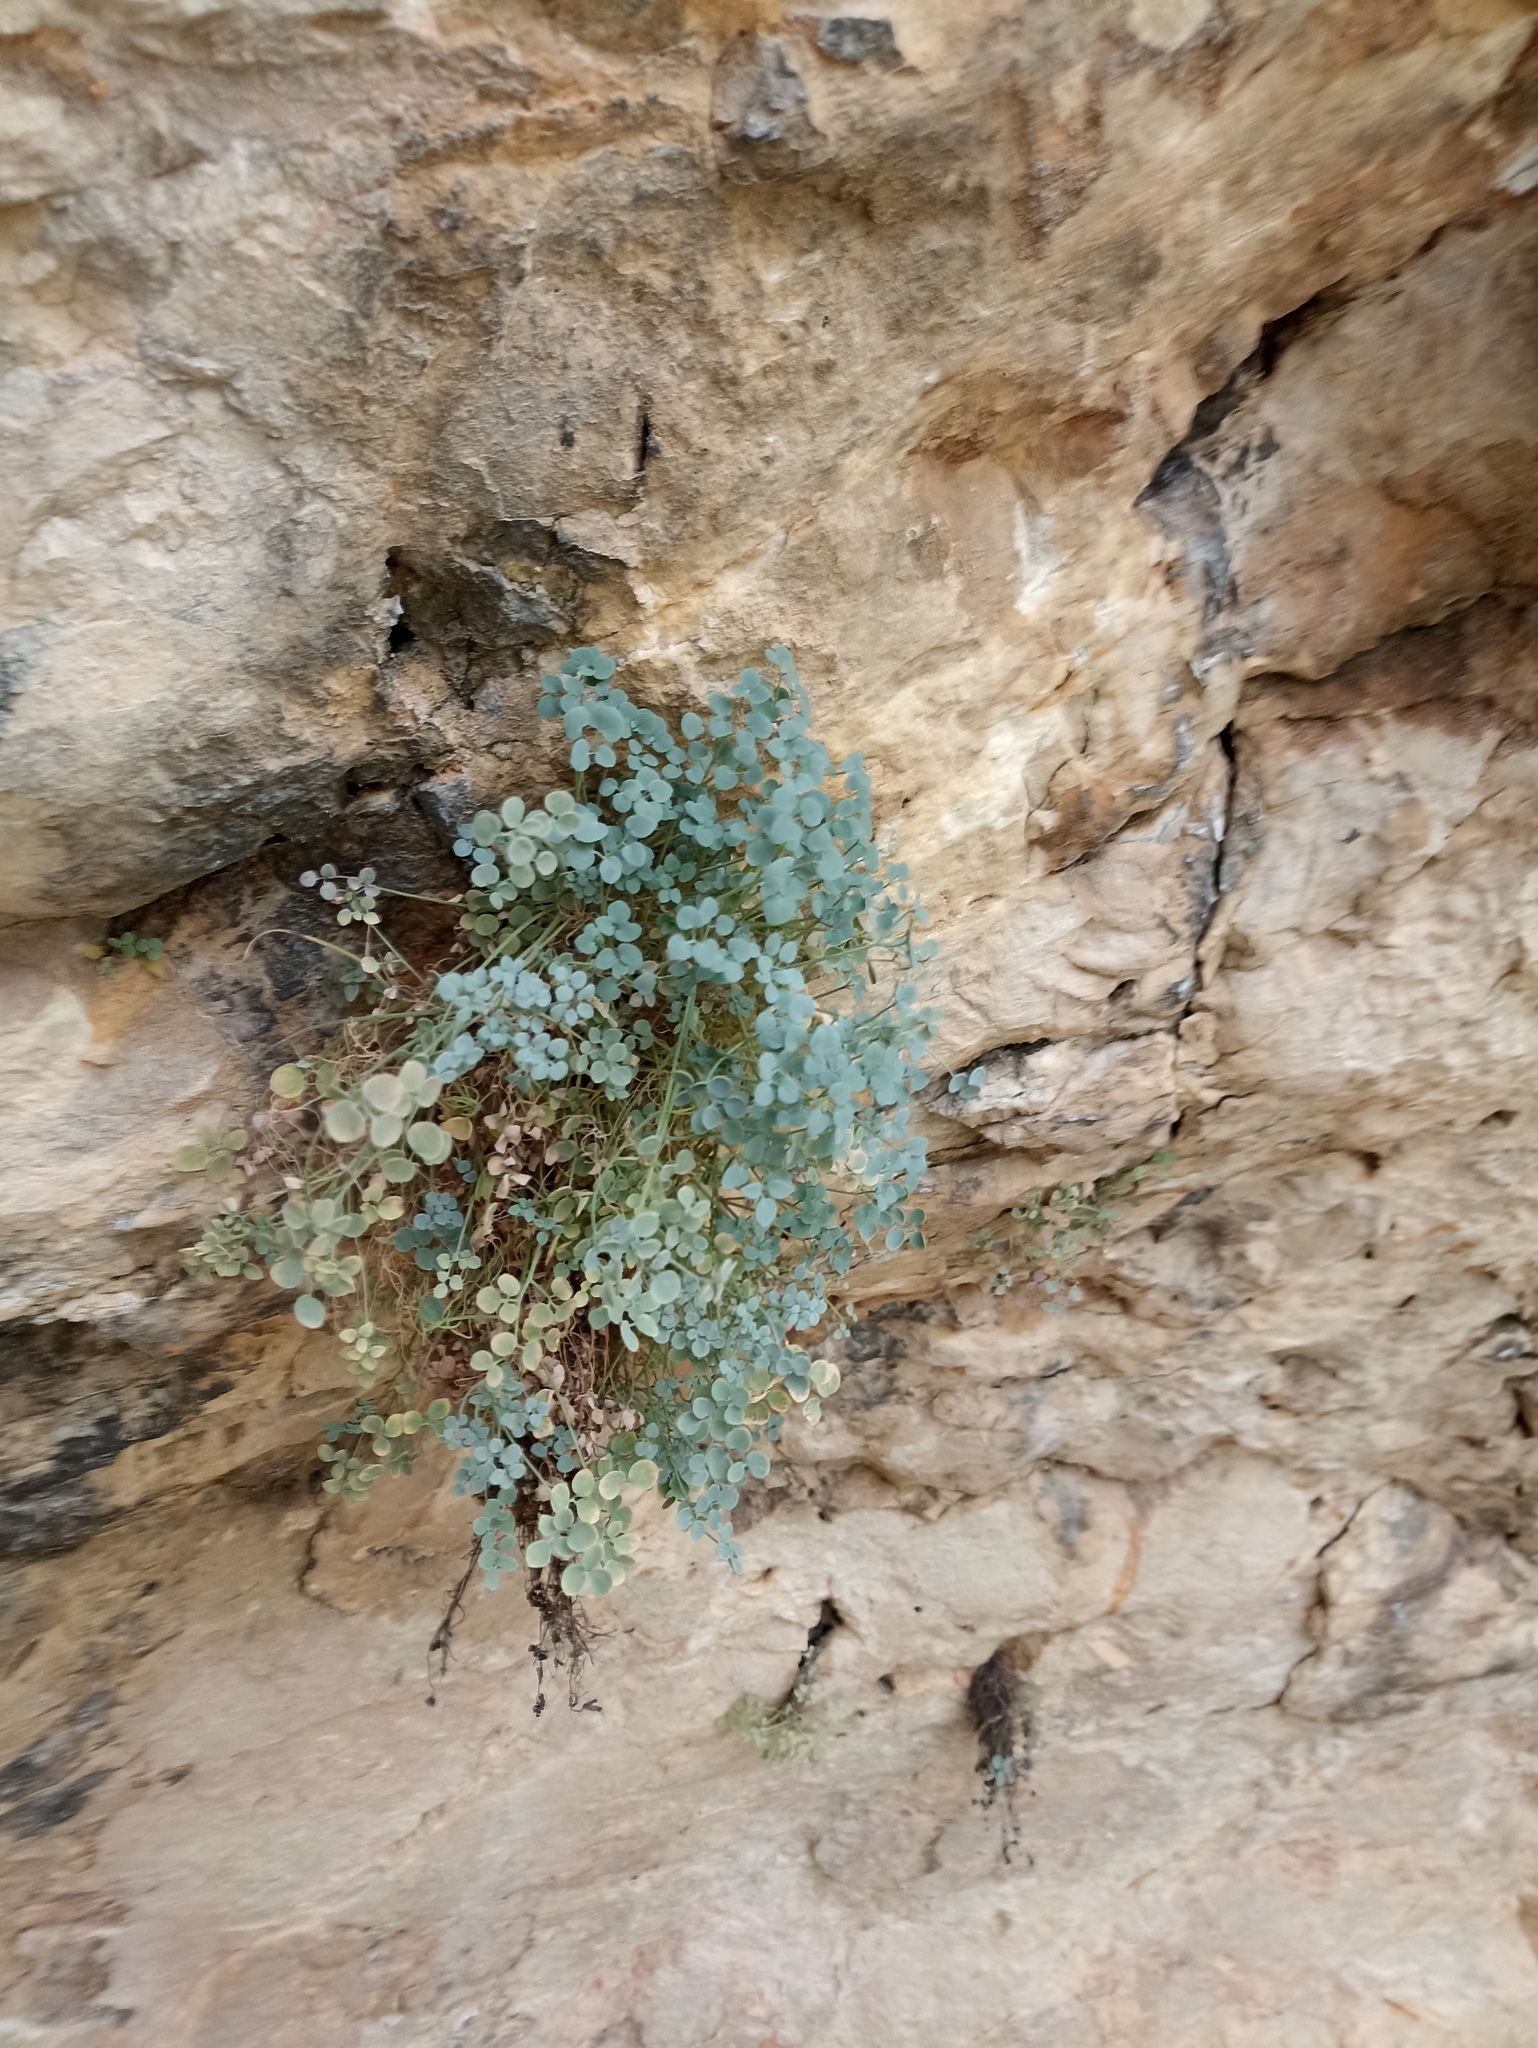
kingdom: Plantae
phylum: Tracheophyta
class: Magnoliopsida
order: Ranunculales
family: Papaveraceae
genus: Sarcocapnos
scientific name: Sarcocapnos enneaphylla
